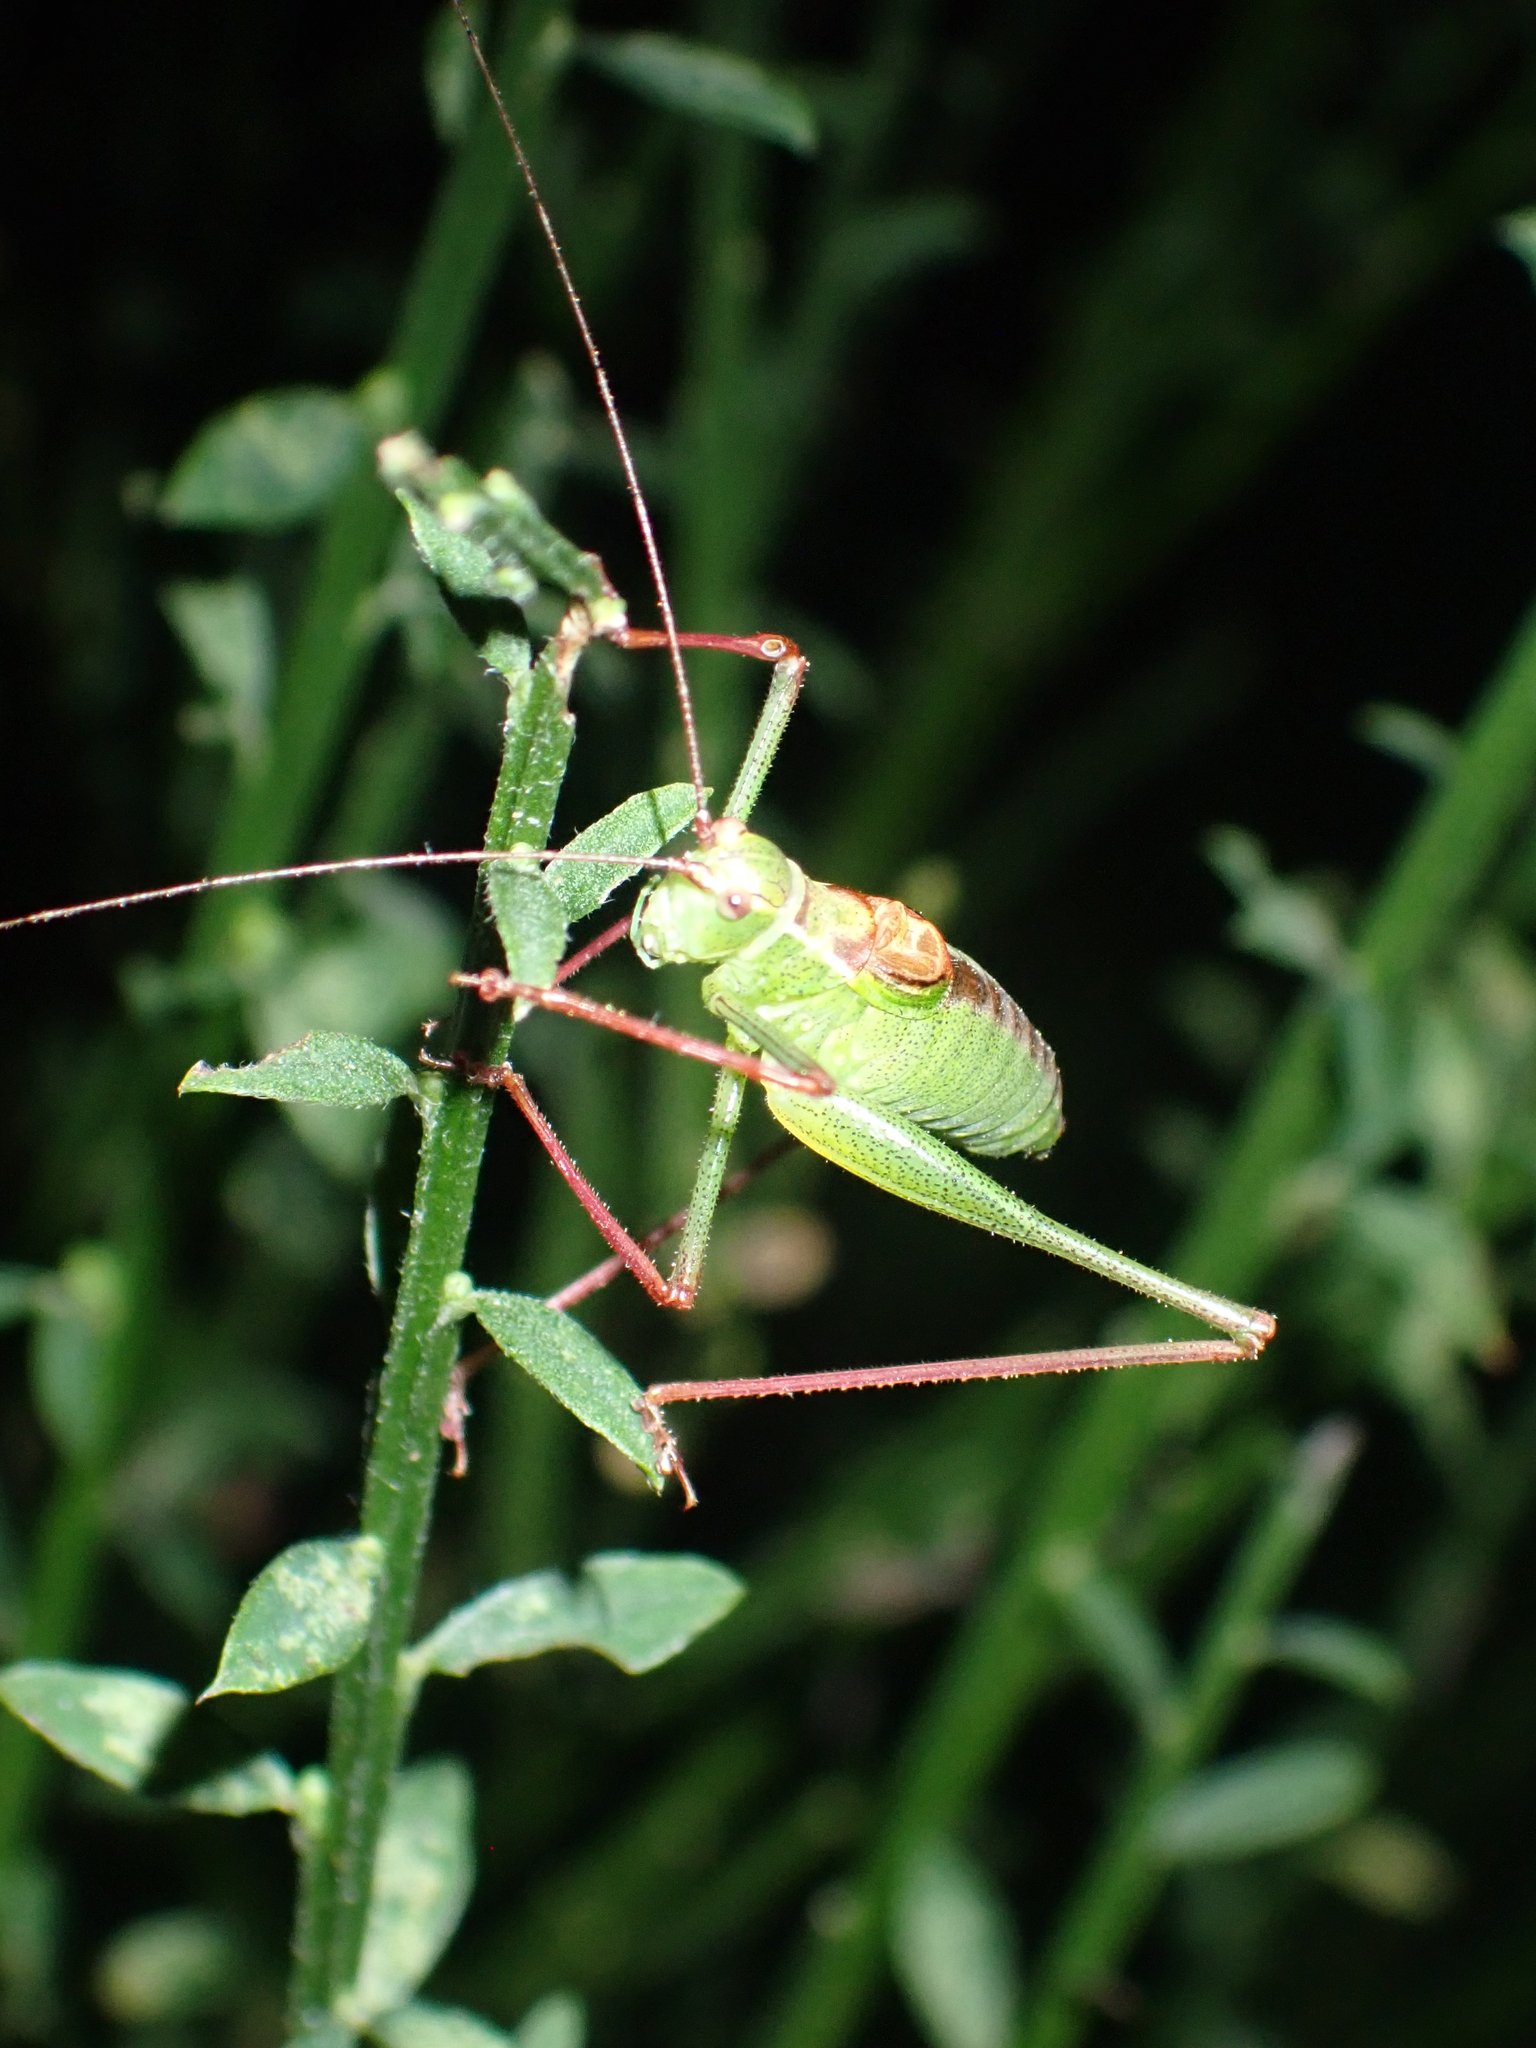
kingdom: Animalia
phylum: Arthropoda
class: Insecta
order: Orthoptera
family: Tettigoniidae
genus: Leptophyes
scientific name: Leptophyes punctatissima
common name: Speckled bush-cricket
